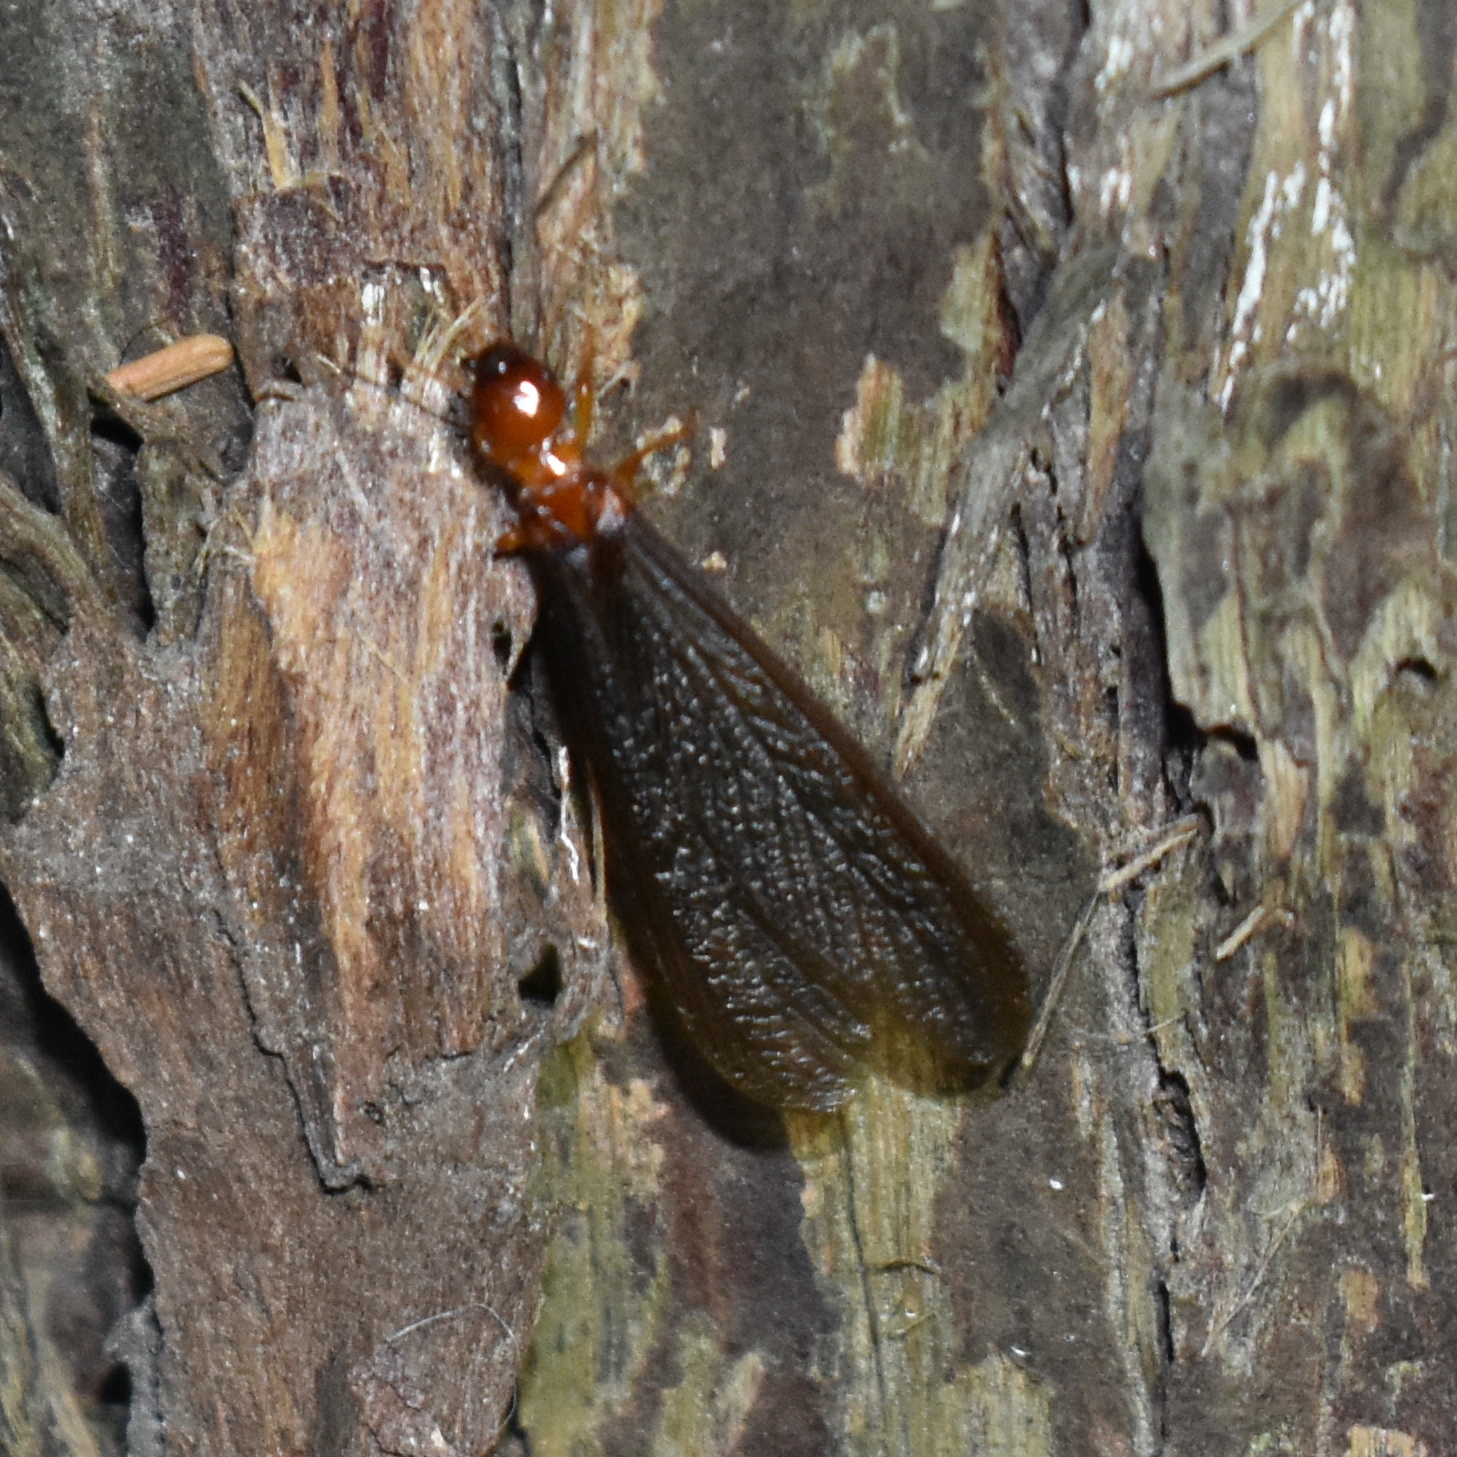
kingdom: Animalia
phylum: Arthropoda
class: Insecta
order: Blattodea
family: Archotermopsidae
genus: Zootermopsis
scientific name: Zootermopsis angusticollis
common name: Rottenwood termite
